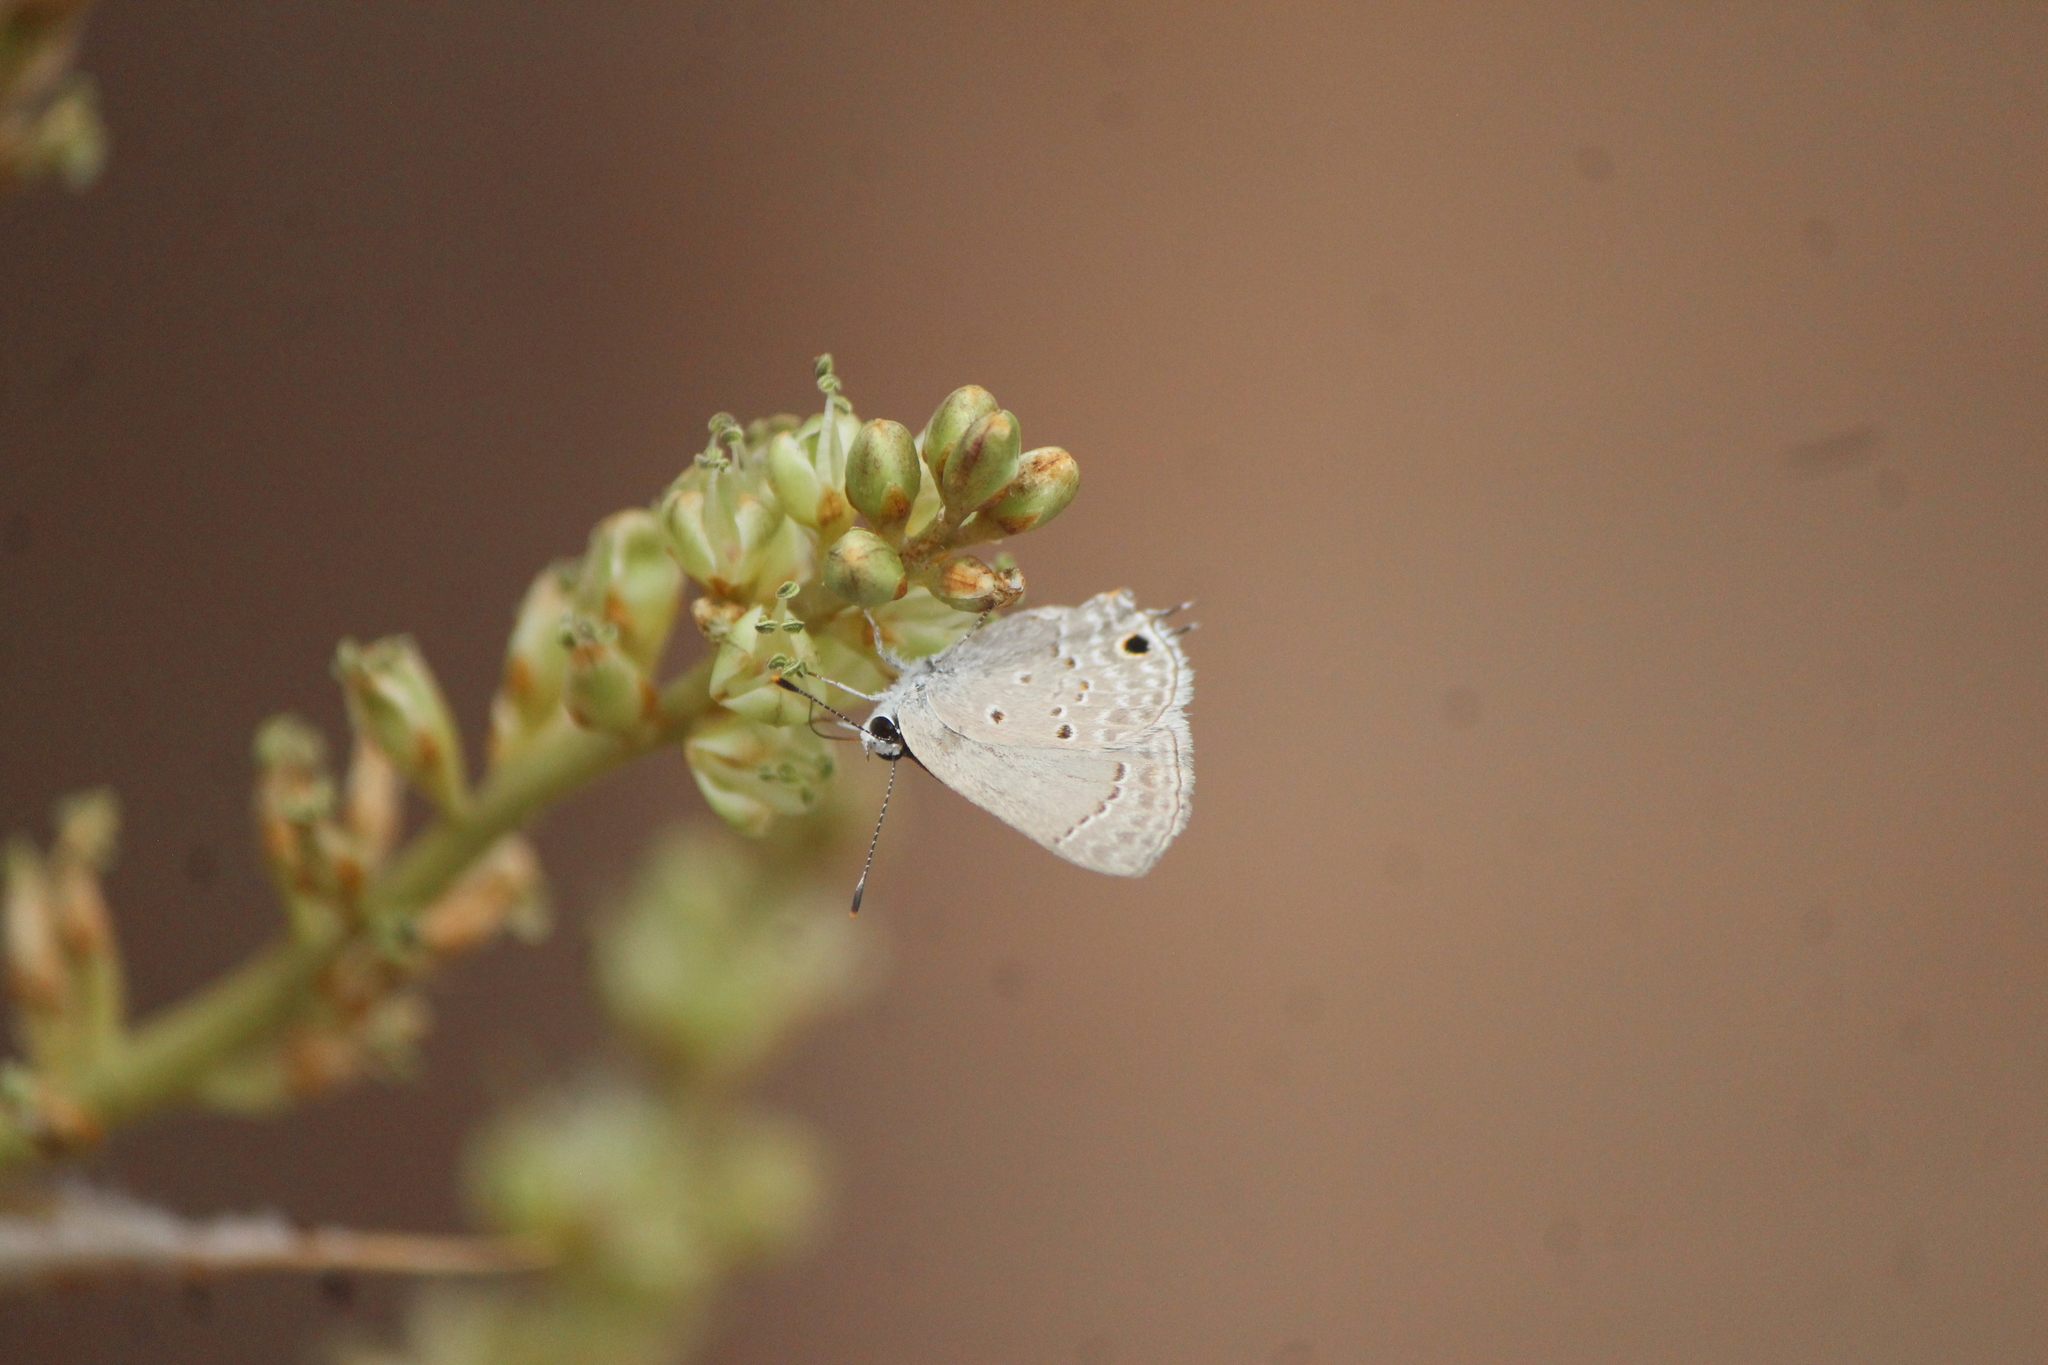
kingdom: Animalia
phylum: Arthropoda
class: Insecta
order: Lepidoptera
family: Lycaenidae
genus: Callicista
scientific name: Callicista columella
